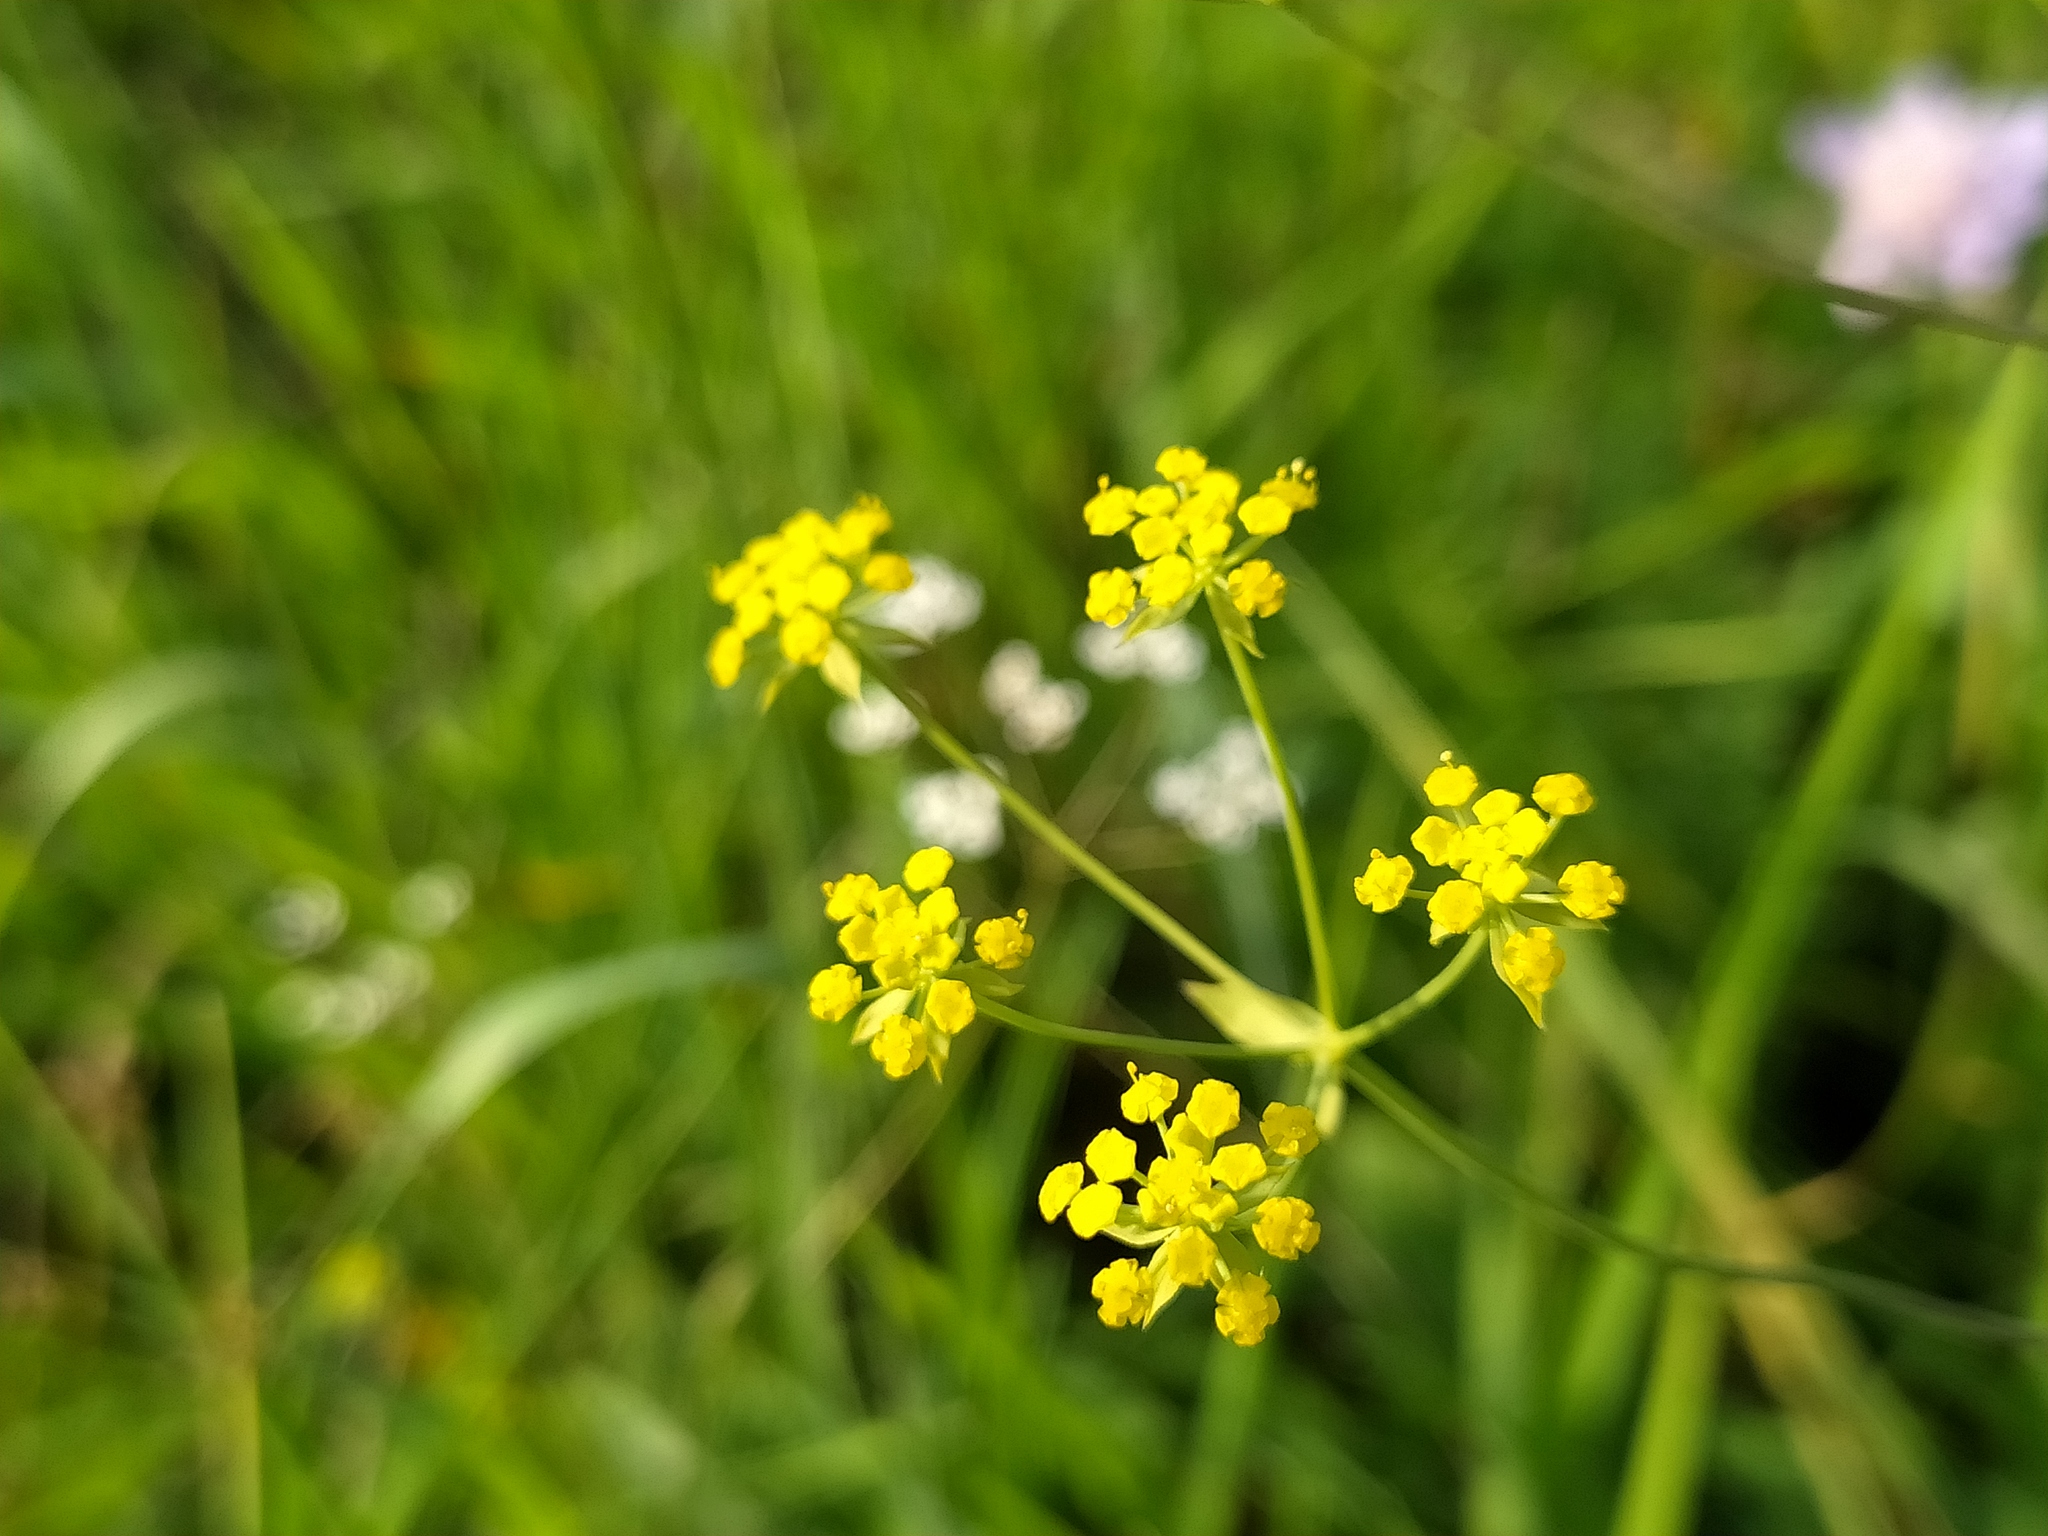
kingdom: Plantae
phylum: Tracheophyta
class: Magnoliopsida
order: Apiales
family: Apiaceae
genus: Bupleurum
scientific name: Bupleurum falcatum
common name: Sickle-leaved hare's-ear
